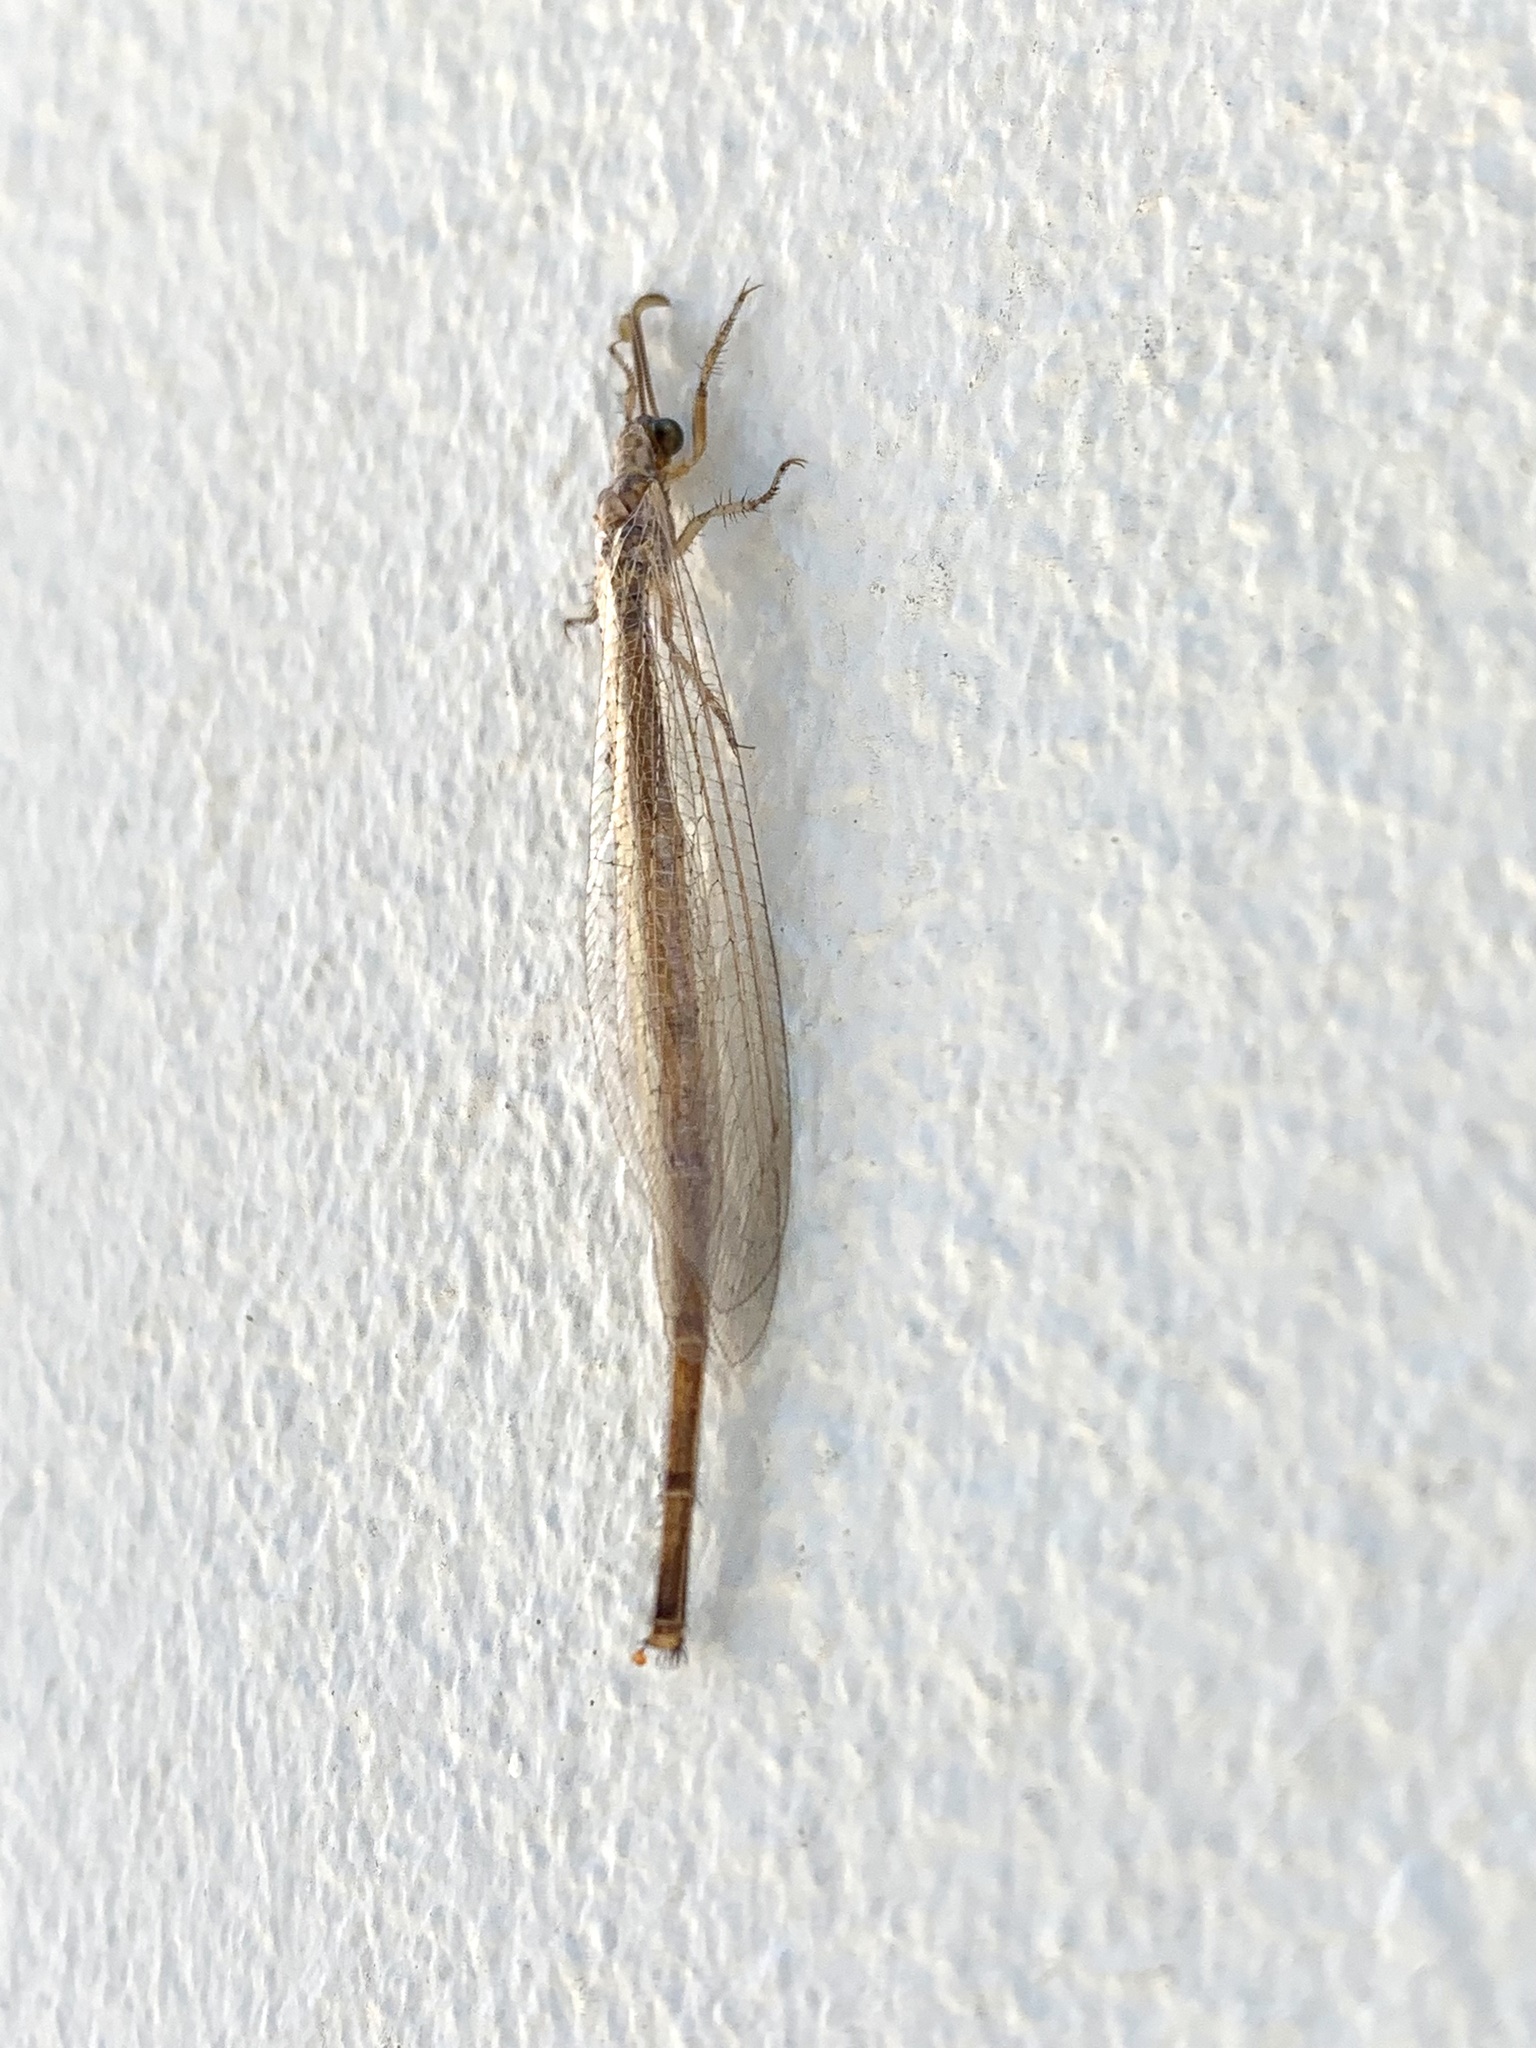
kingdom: Animalia
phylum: Arthropoda
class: Insecta
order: Neuroptera
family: Myrmeleontidae
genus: Creoleon
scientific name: Creoleon plumbeus
